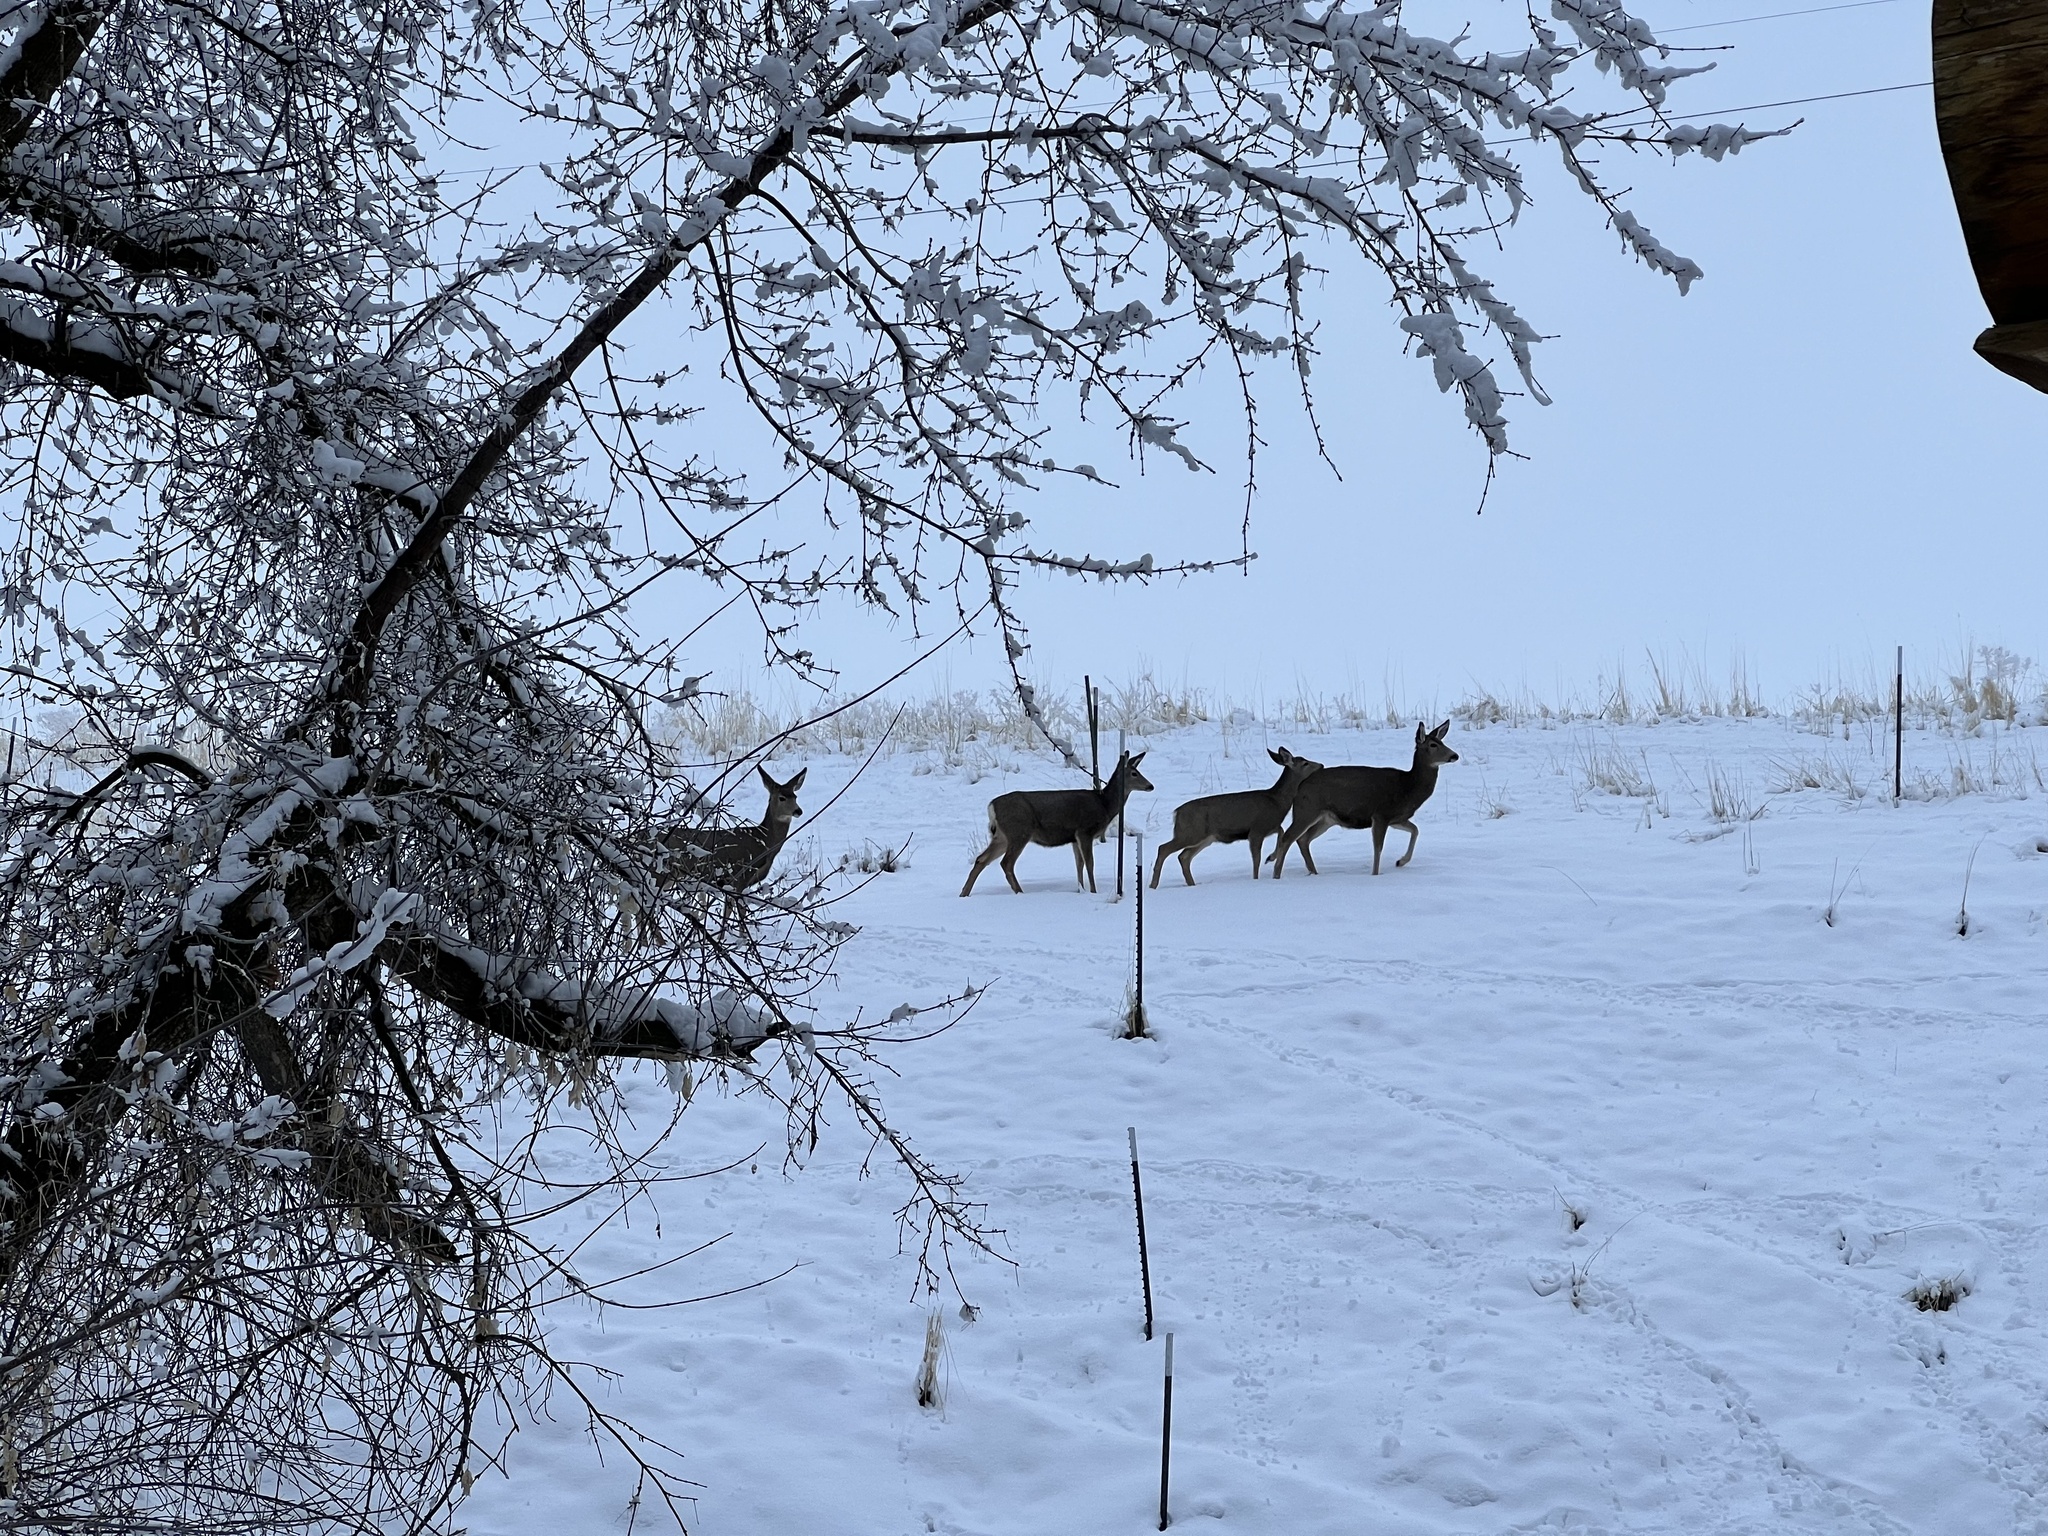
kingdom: Animalia
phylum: Chordata
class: Mammalia
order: Artiodactyla
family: Cervidae
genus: Odocoileus
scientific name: Odocoileus hemionus
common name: Mule deer
